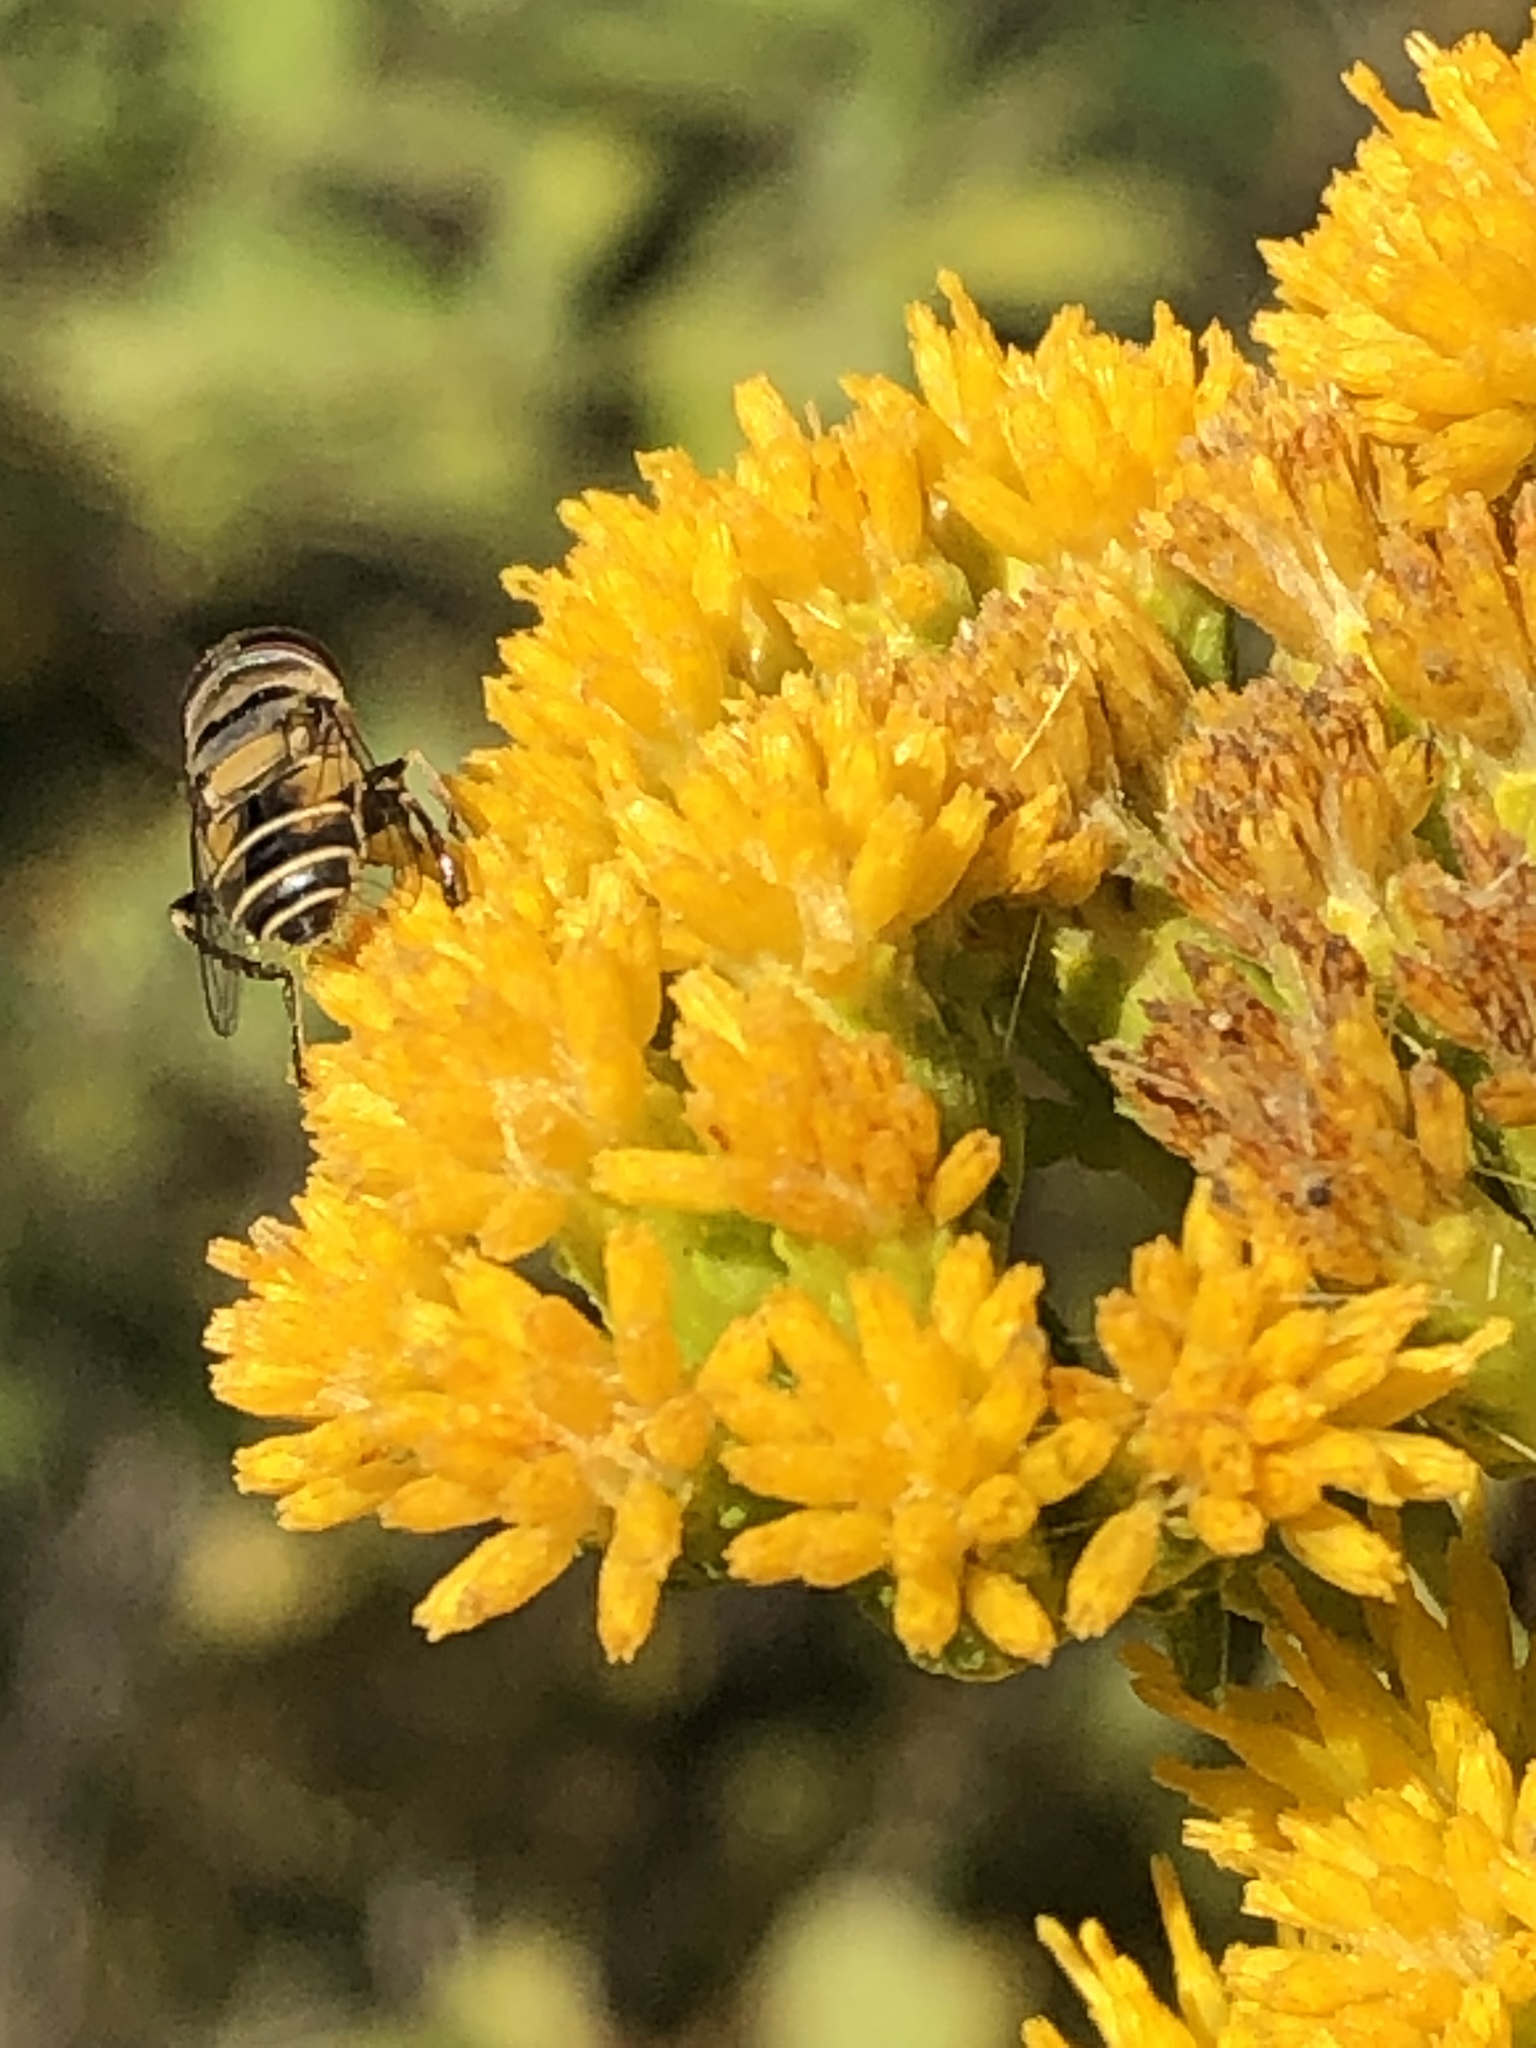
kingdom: Animalia
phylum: Arthropoda
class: Insecta
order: Diptera
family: Syrphidae
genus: Palpada
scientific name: Palpada alhambra
